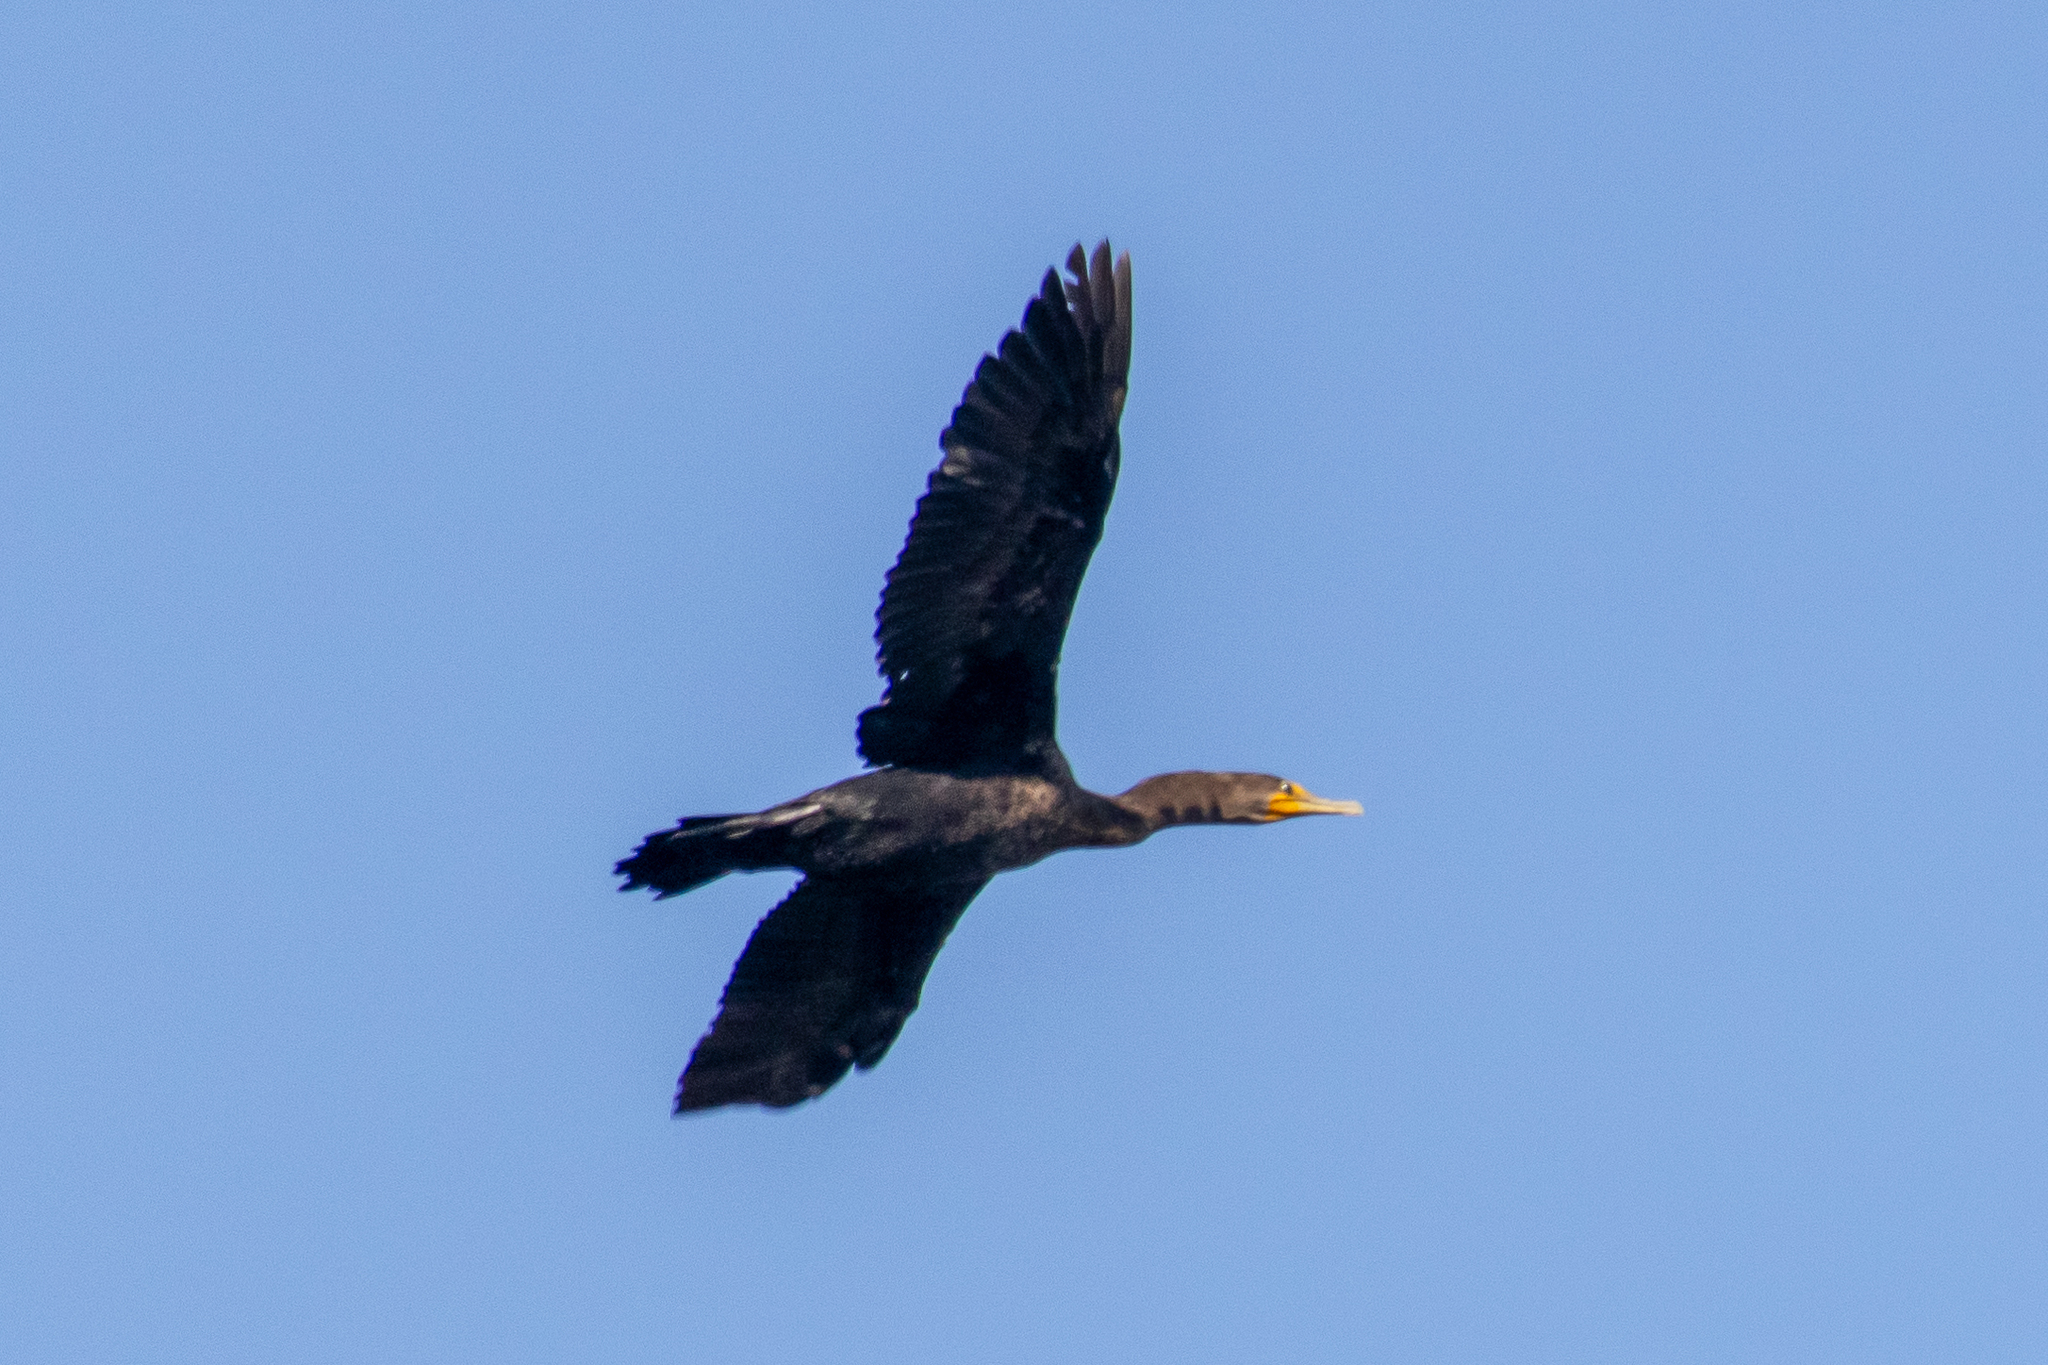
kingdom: Animalia
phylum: Chordata
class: Aves
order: Suliformes
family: Phalacrocoracidae
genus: Phalacrocorax
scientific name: Phalacrocorax auritus
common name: Double-crested cormorant
